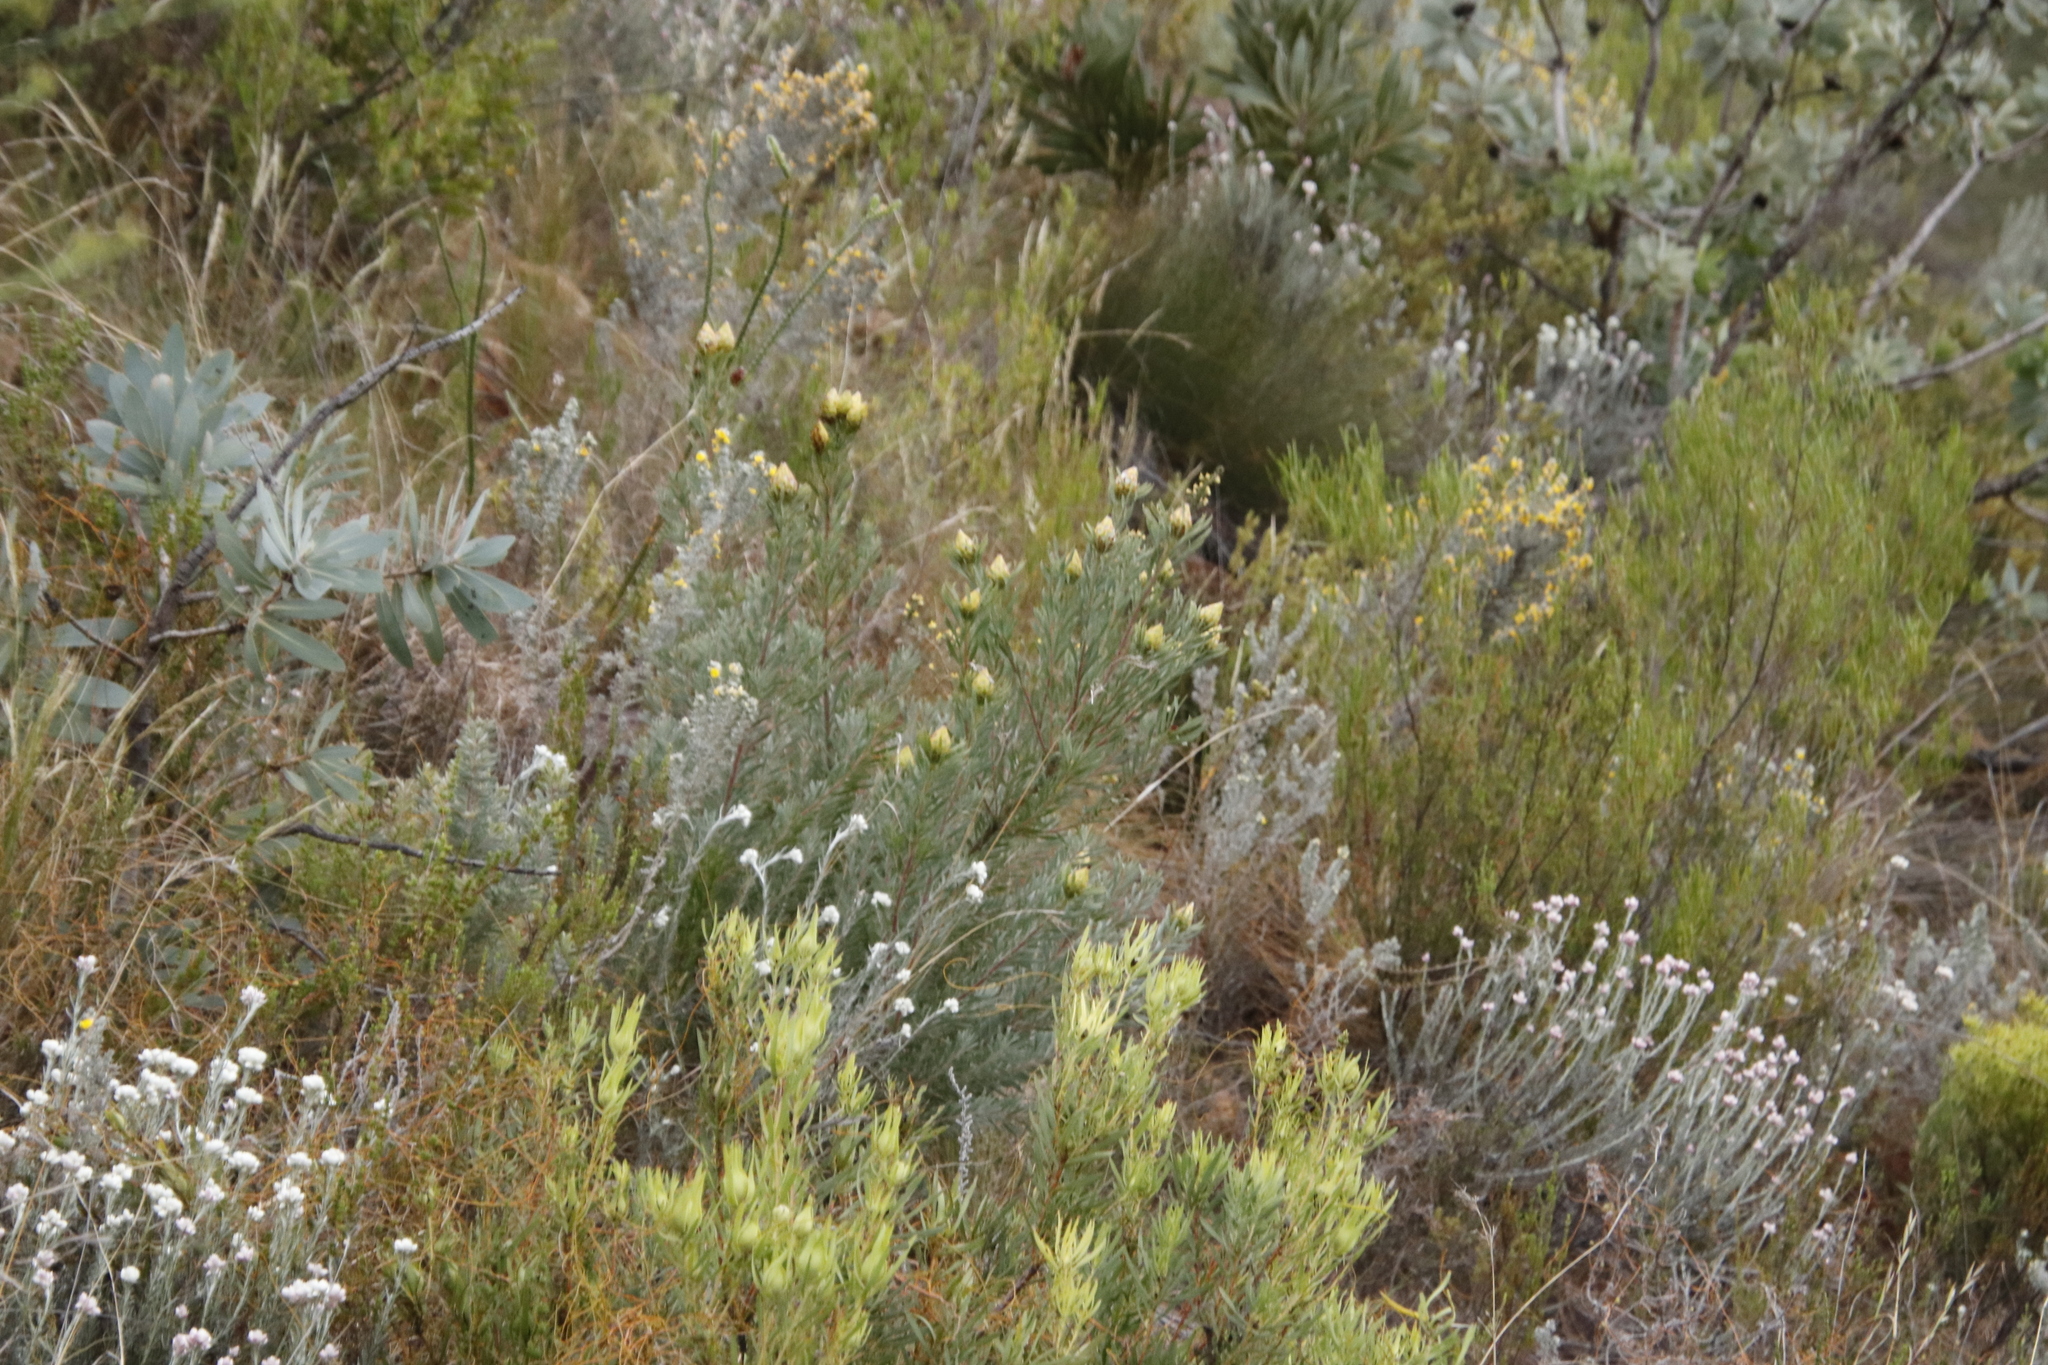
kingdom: Plantae
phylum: Tracheophyta
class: Magnoliopsida
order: Proteales
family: Proteaceae
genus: Leucadendron
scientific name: Leucadendron rubrum
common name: Spinning top
